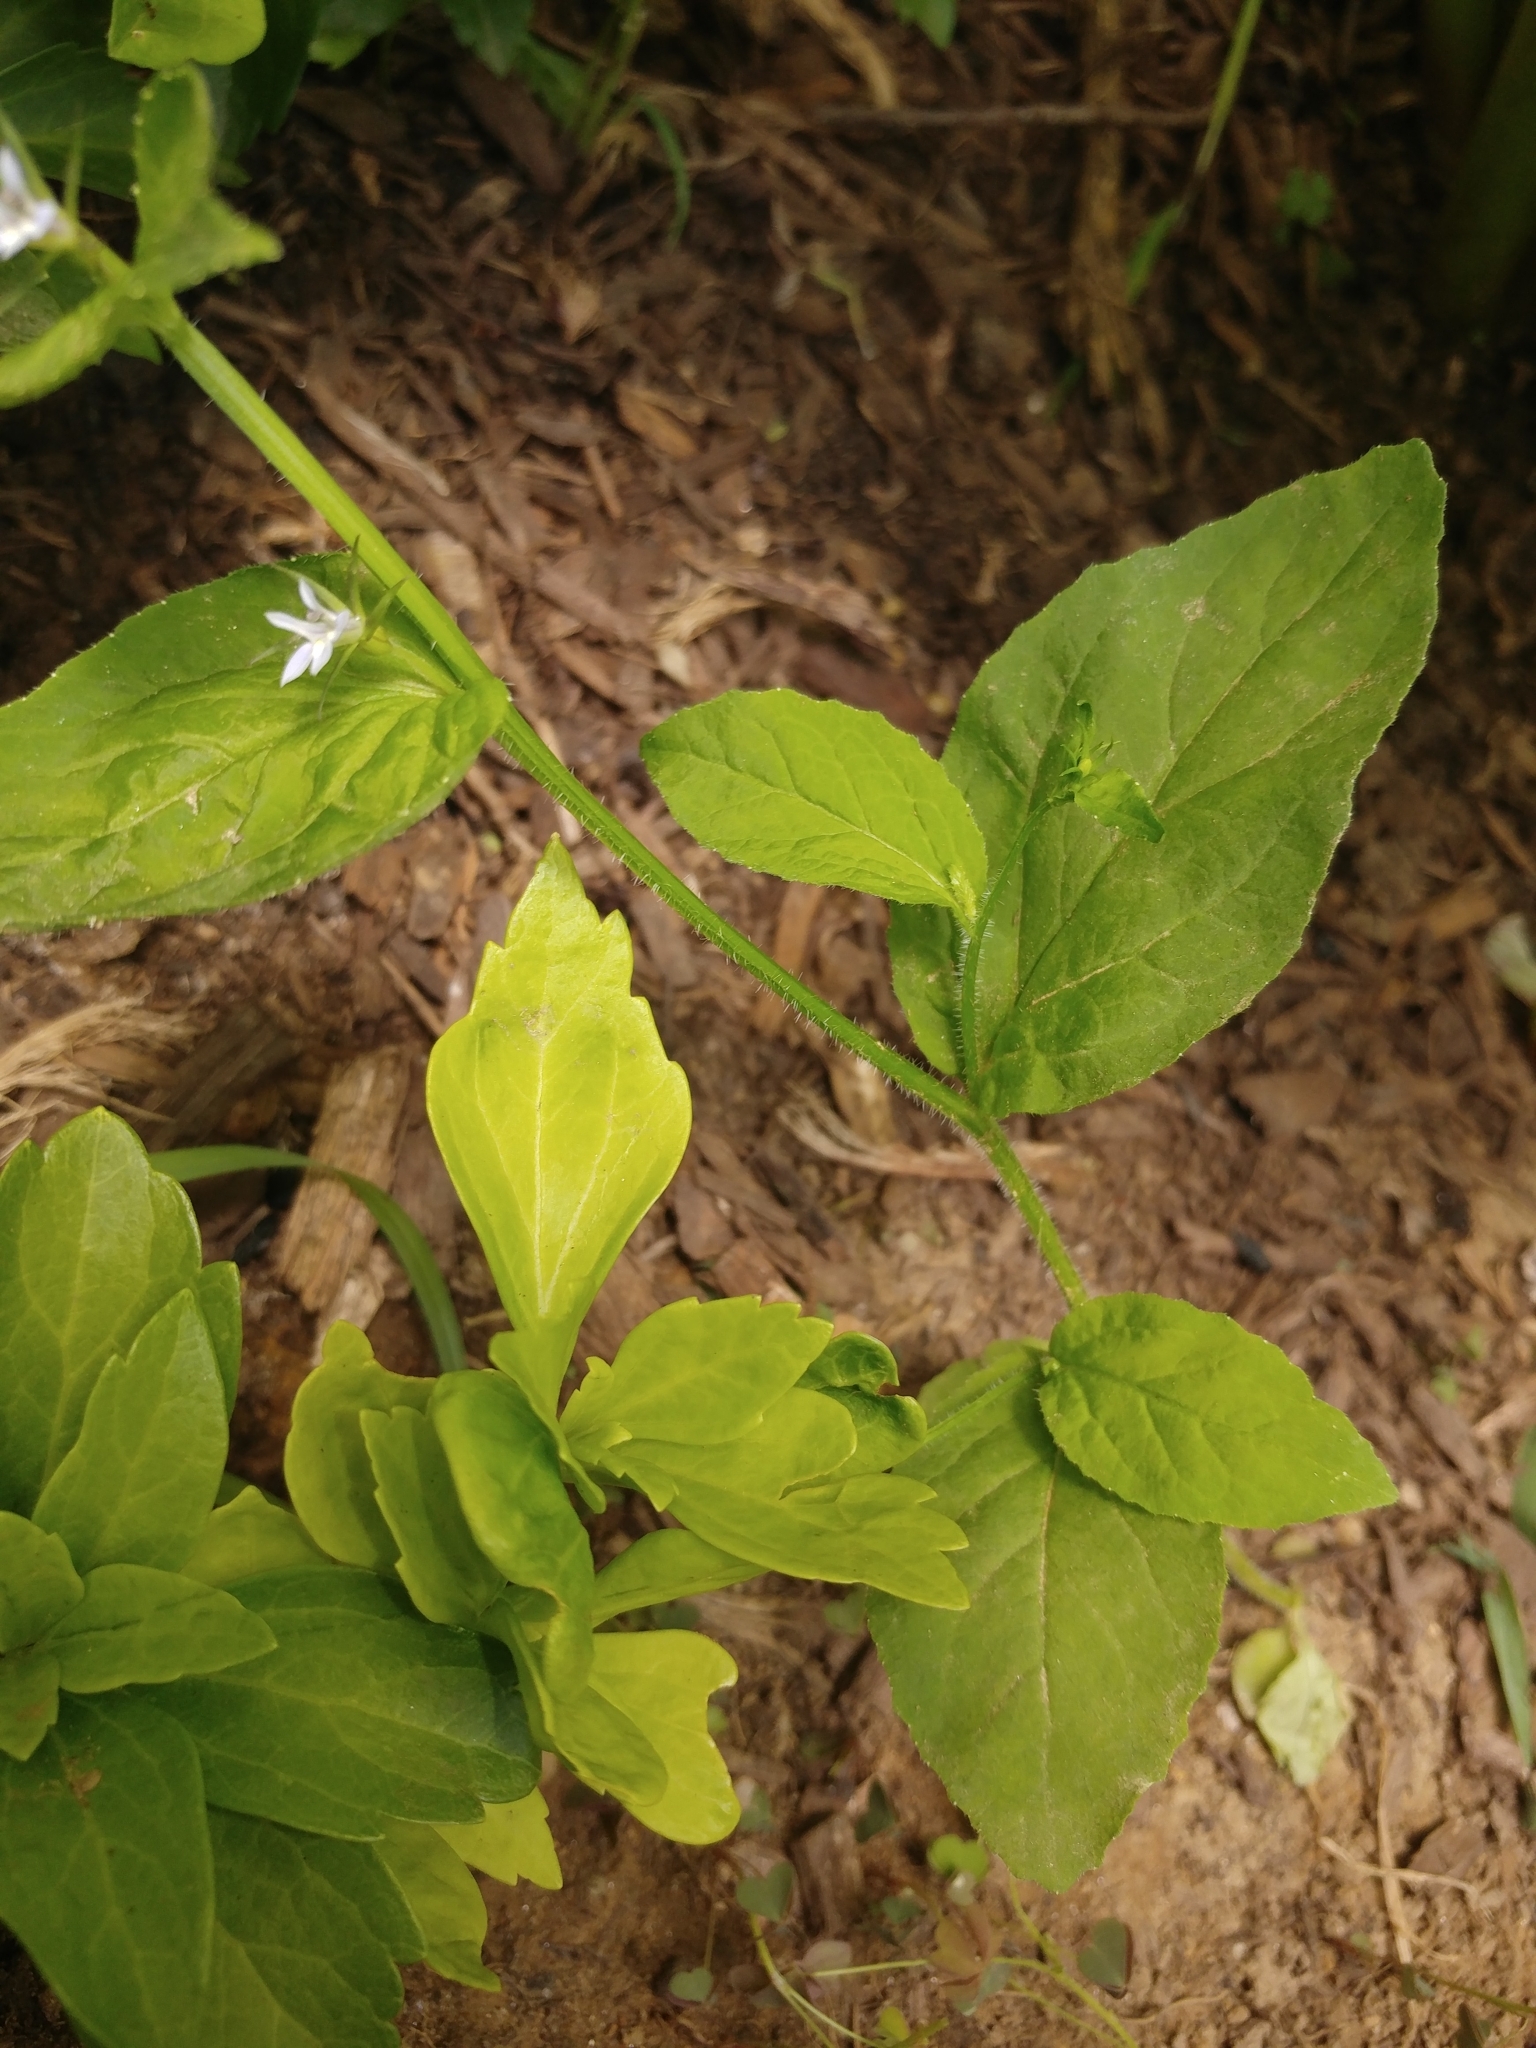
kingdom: Plantae
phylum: Tracheophyta
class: Magnoliopsida
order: Asterales
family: Campanulaceae
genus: Lobelia
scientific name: Lobelia inflata
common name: Indian tobacco
